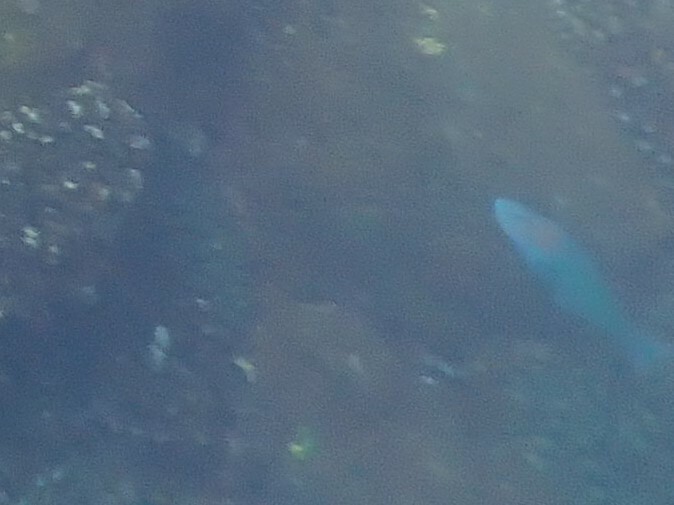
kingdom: Animalia
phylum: Chordata
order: Perciformes
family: Labridae
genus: Thalassoma
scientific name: Thalassoma grammaticum
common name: Sunset wrasse
